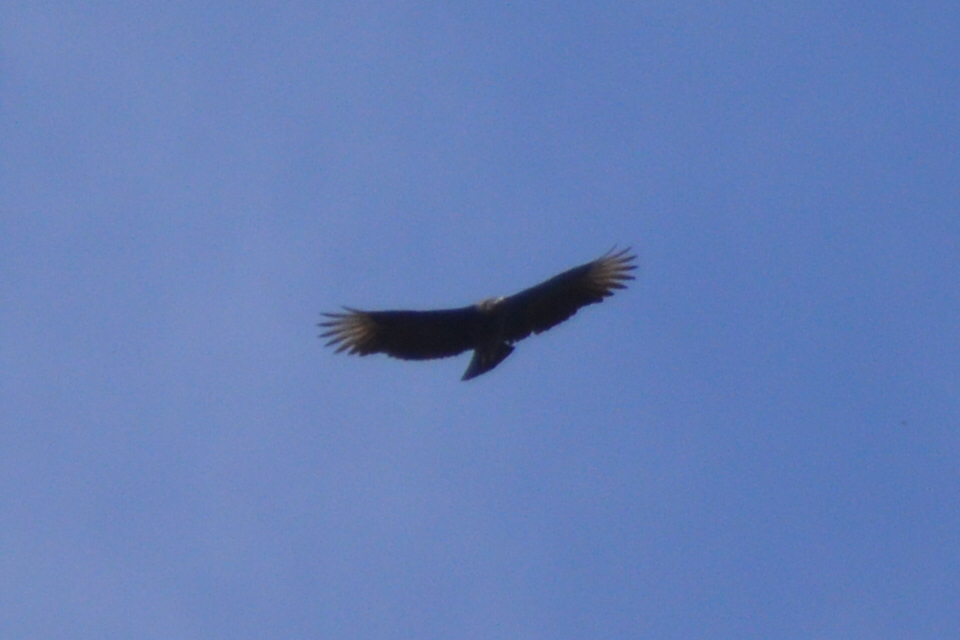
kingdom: Animalia
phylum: Chordata
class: Aves
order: Accipitriformes
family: Cathartidae
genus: Coragyps
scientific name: Coragyps atratus
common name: Black vulture
